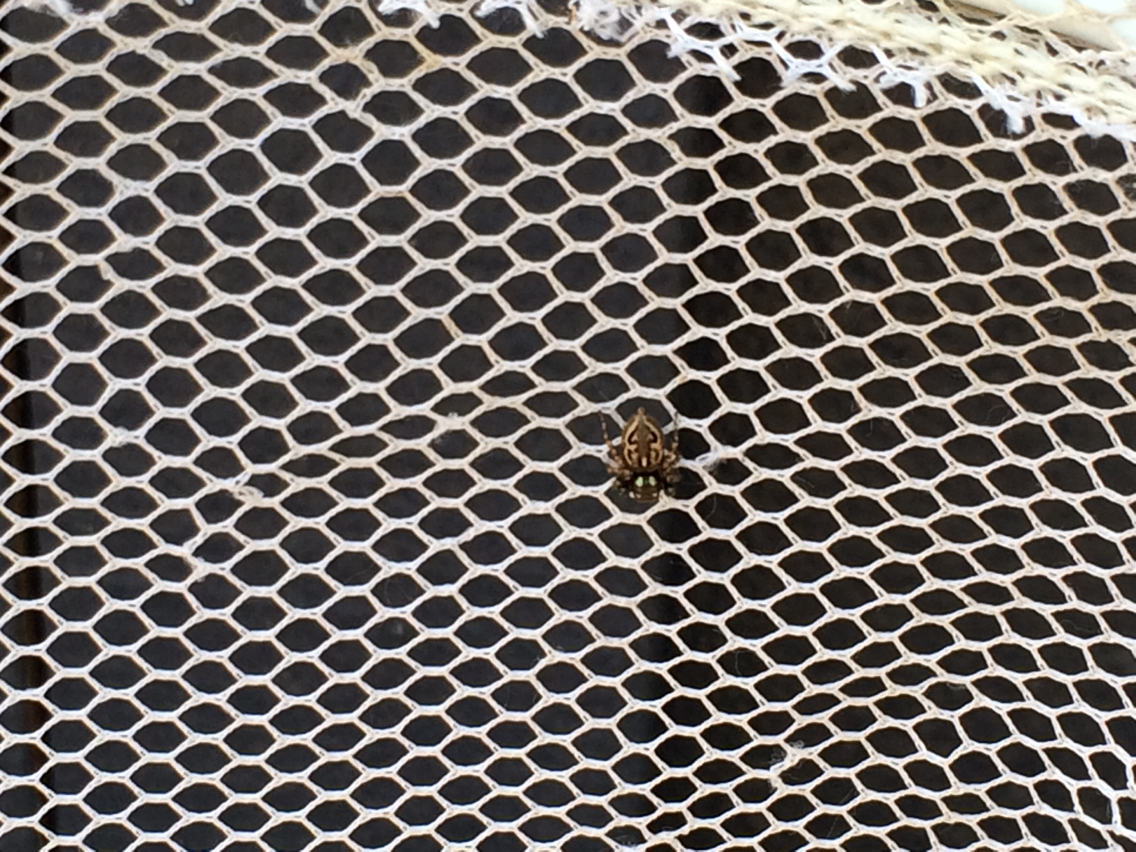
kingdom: Animalia
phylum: Arthropoda
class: Arachnida
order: Araneae
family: Salticidae
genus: Anasaitis
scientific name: Anasaitis canosa
